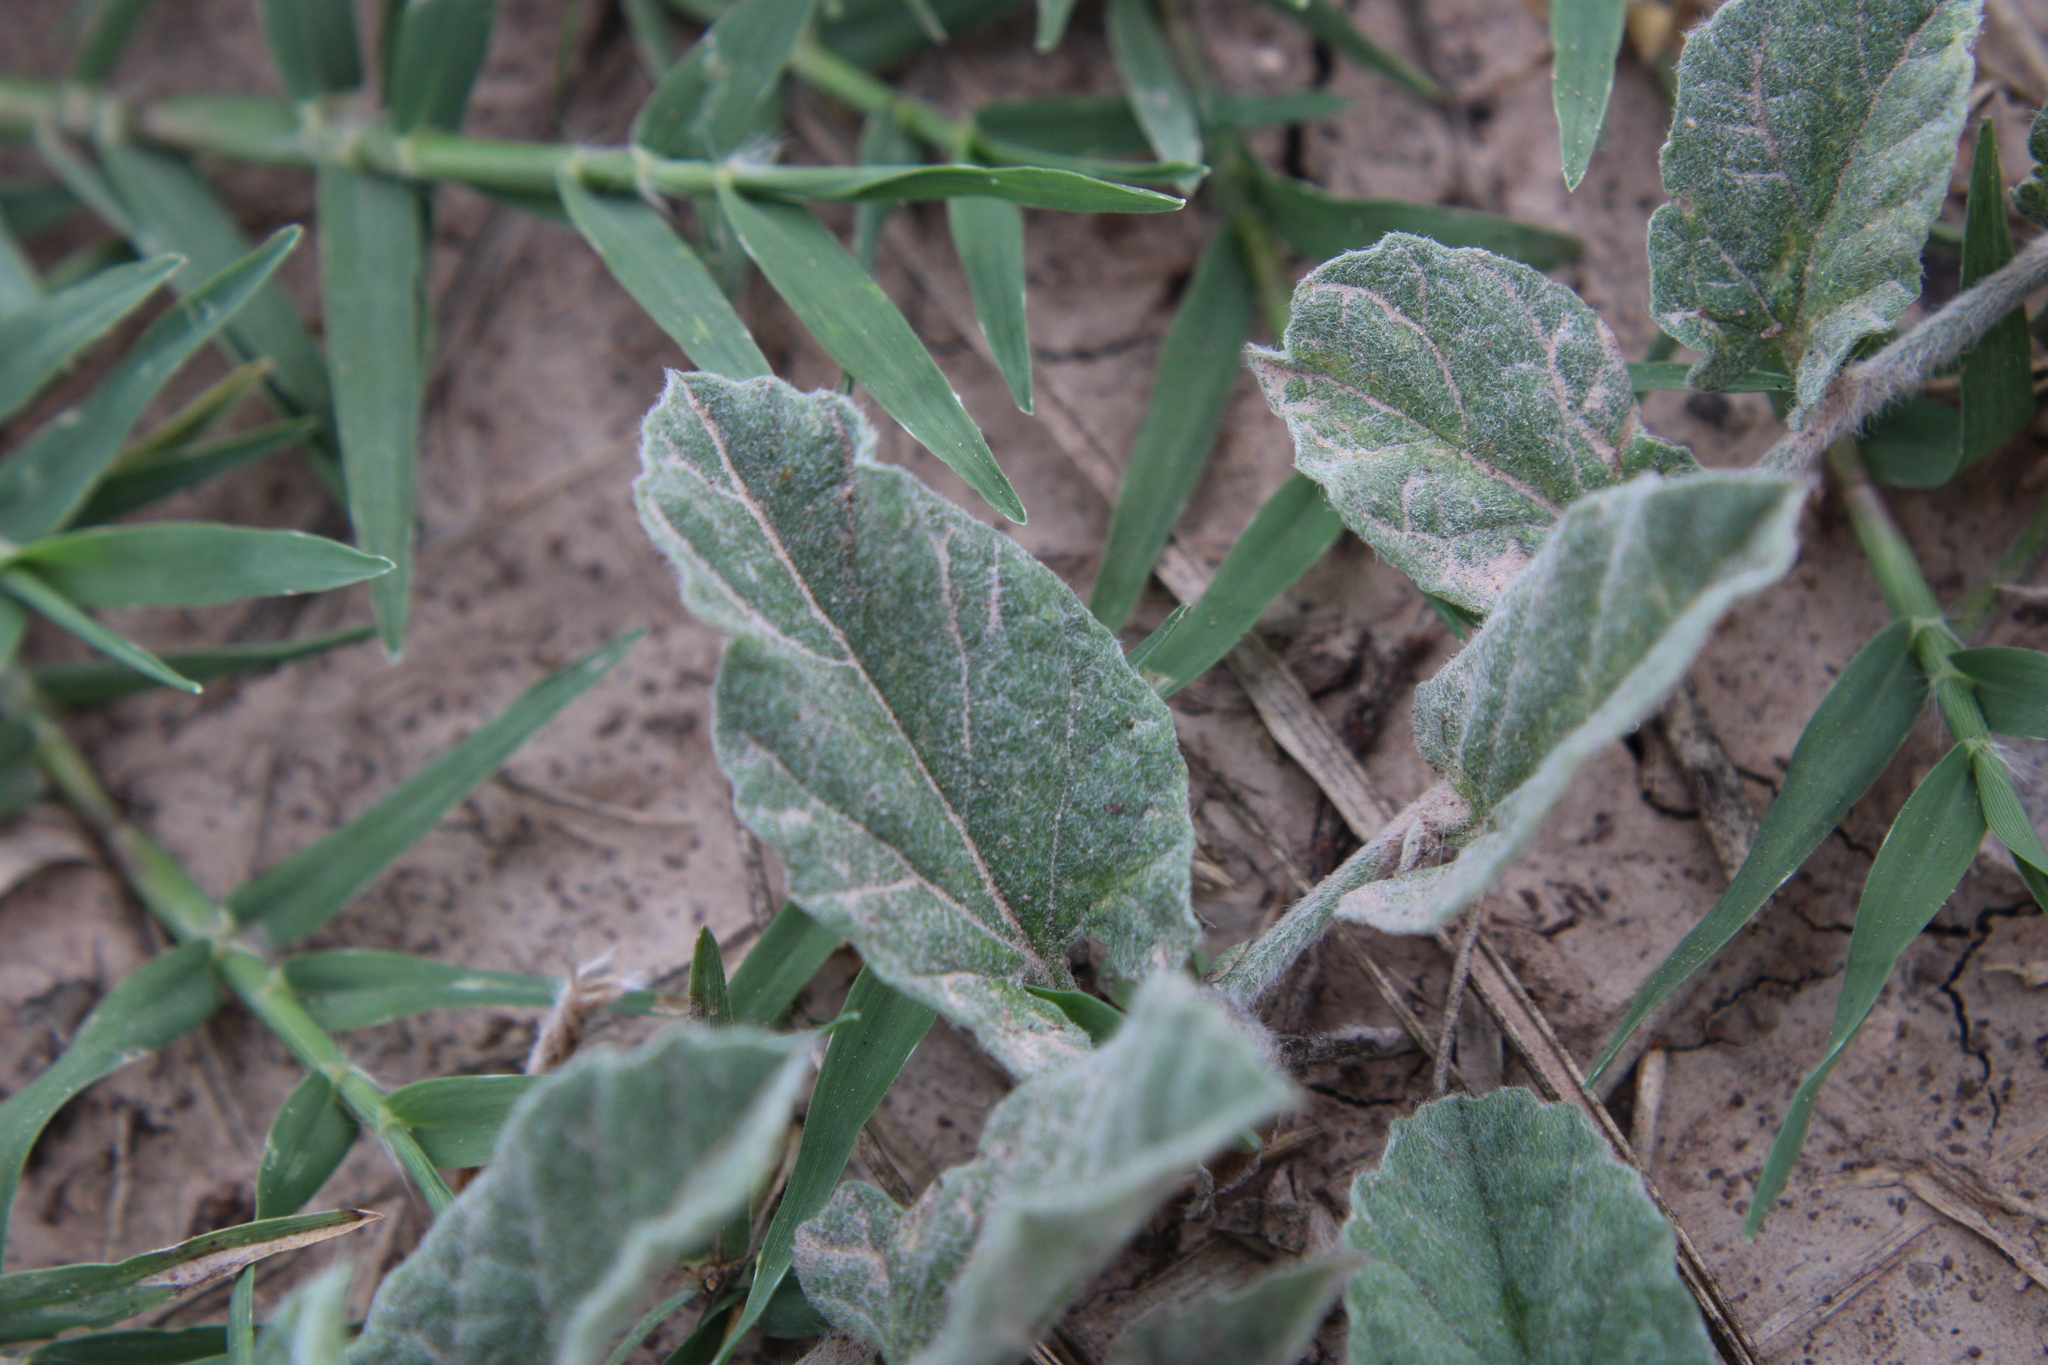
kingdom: Plantae
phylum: Tracheophyta
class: Magnoliopsida
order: Solanales
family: Convolvulaceae
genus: Convolvulus
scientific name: Convolvulus hermanniae
